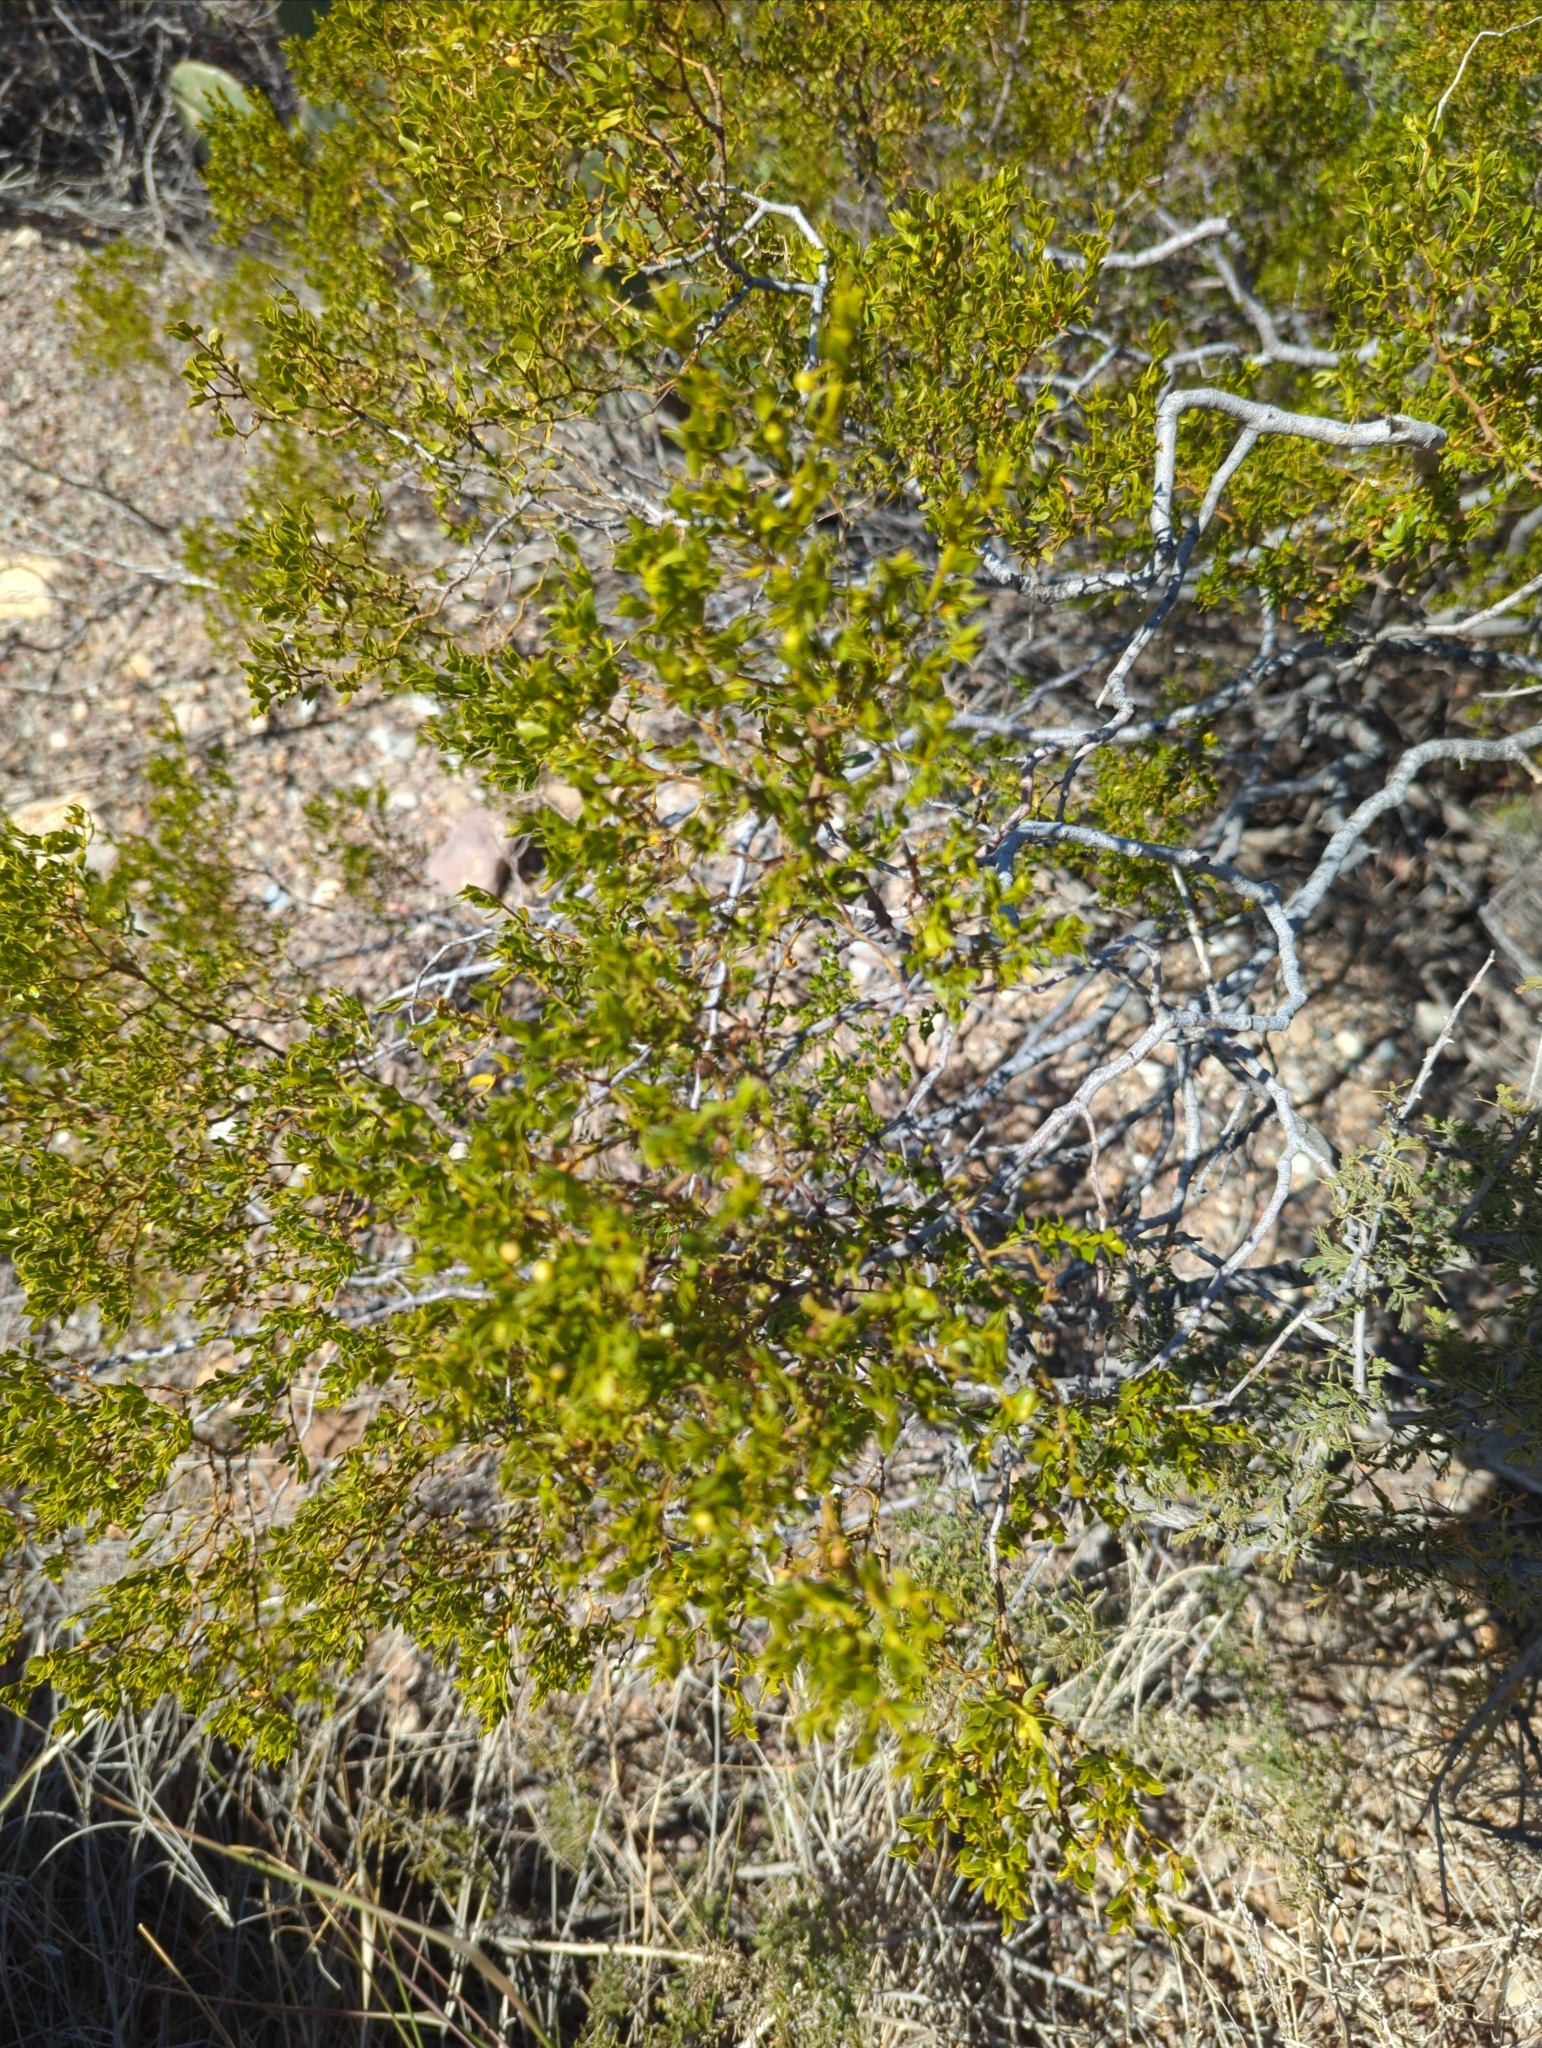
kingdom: Plantae
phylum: Tracheophyta
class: Magnoliopsida
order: Zygophyllales
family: Zygophyllaceae
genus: Larrea
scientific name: Larrea tridentata
